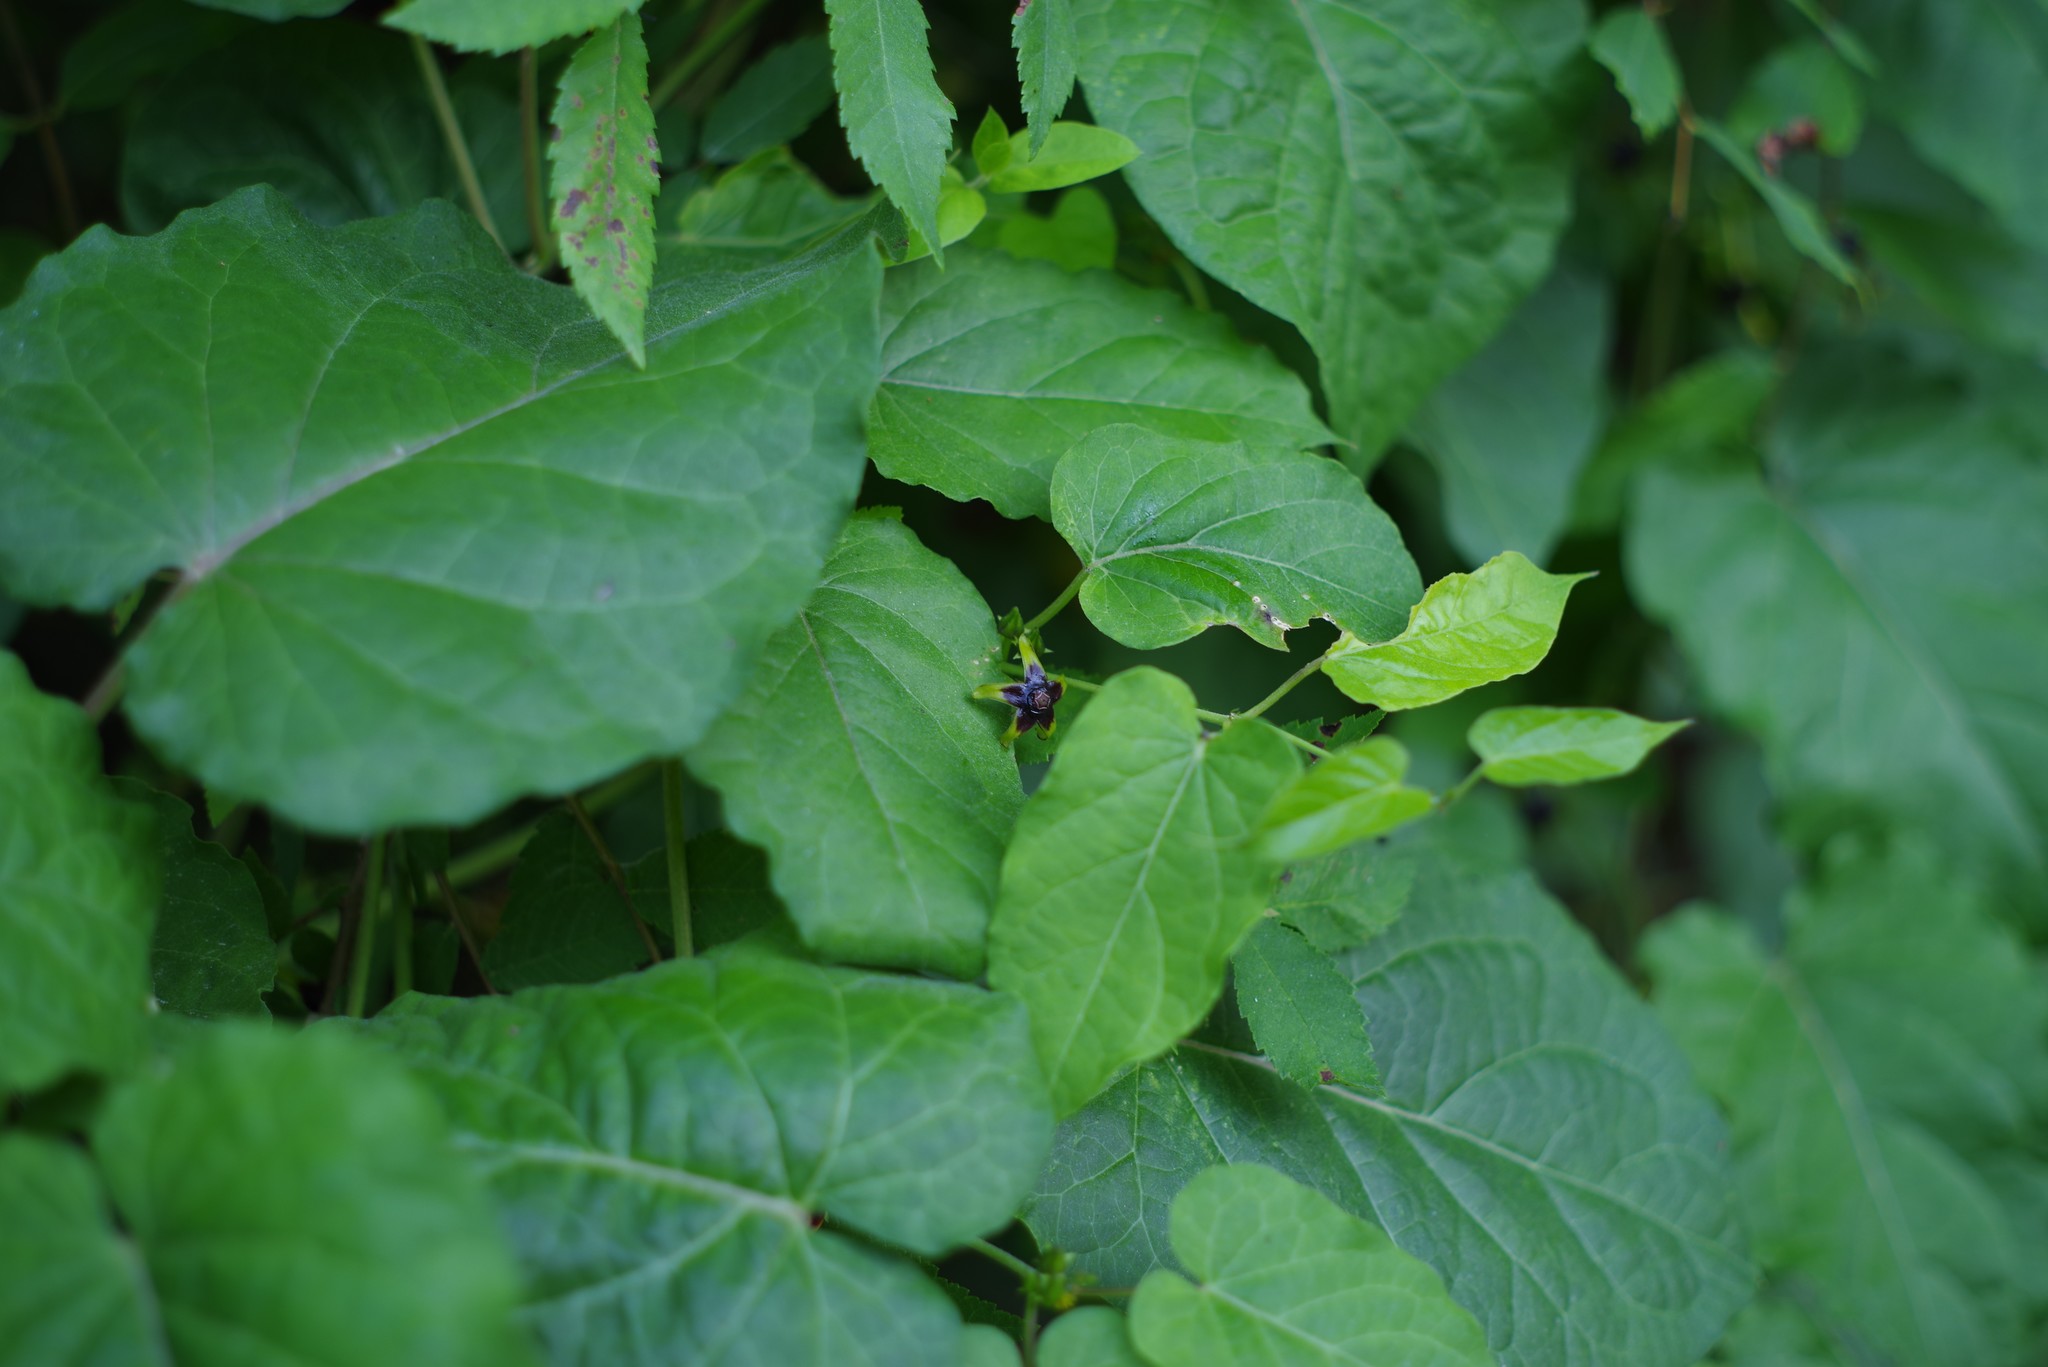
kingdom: Plantae
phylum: Tracheophyta
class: Magnoliopsida
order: Gentianales
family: Apocynaceae
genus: Gonolobus
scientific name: Gonolobus suberosus
